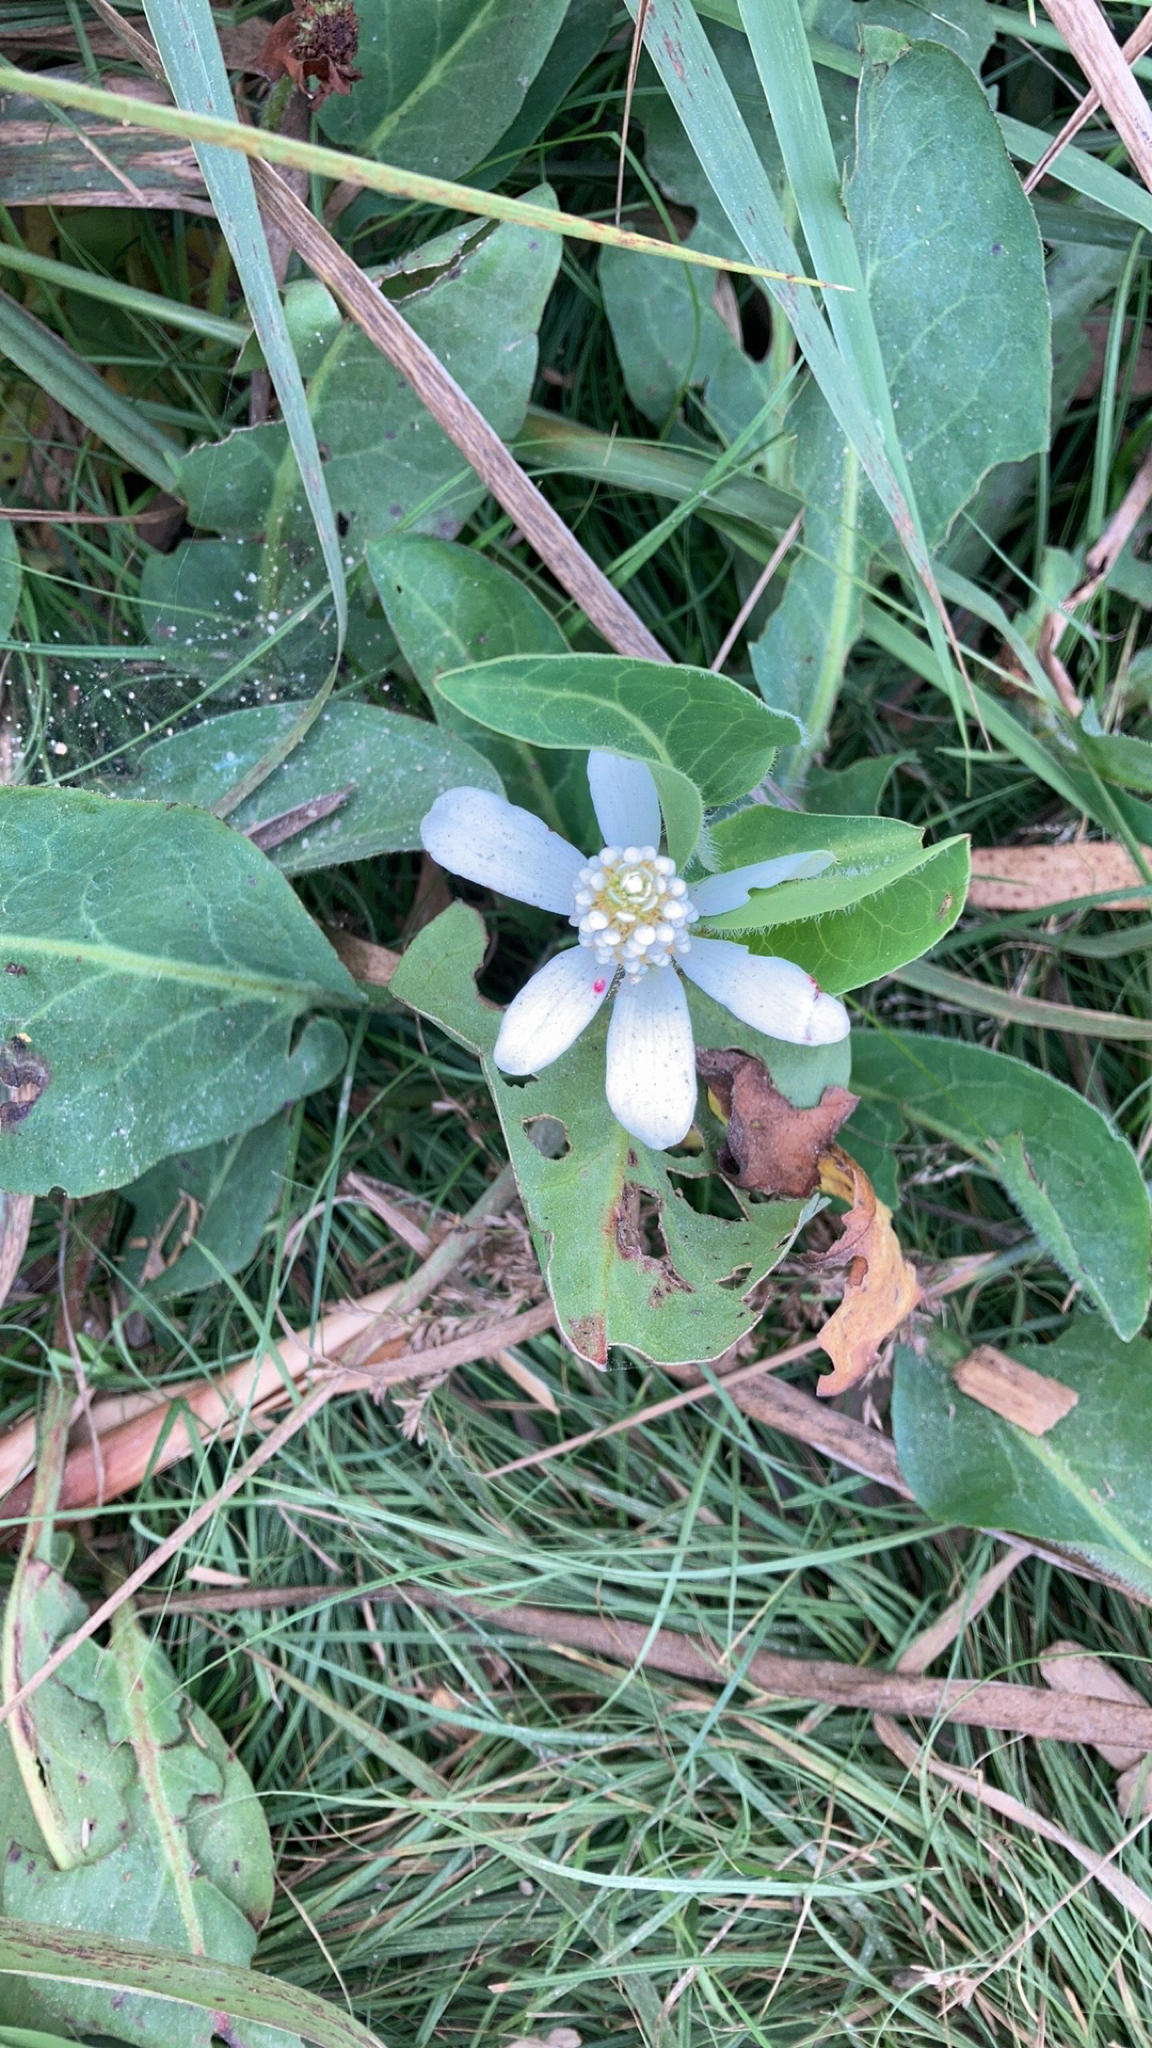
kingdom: Plantae
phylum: Tracheophyta
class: Magnoliopsida
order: Piperales
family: Saururaceae
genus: Anemopsis
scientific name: Anemopsis californica
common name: Apache-beads
